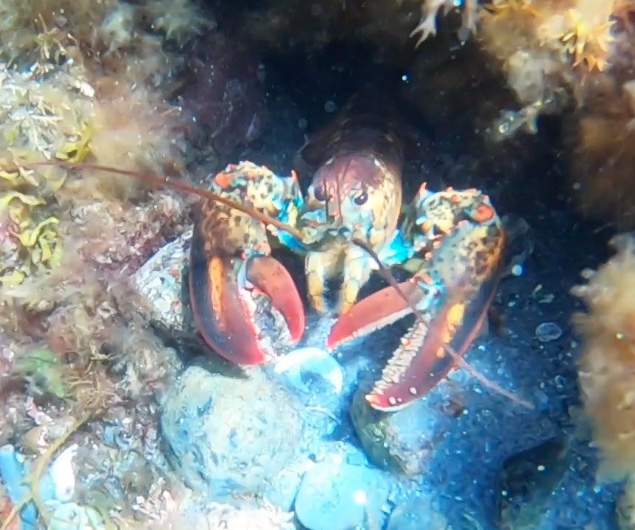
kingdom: Animalia
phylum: Arthropoda
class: Malacostraca
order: Decapoda
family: Nephropidae
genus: Homarus
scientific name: Homarus americanus
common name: American lobster
